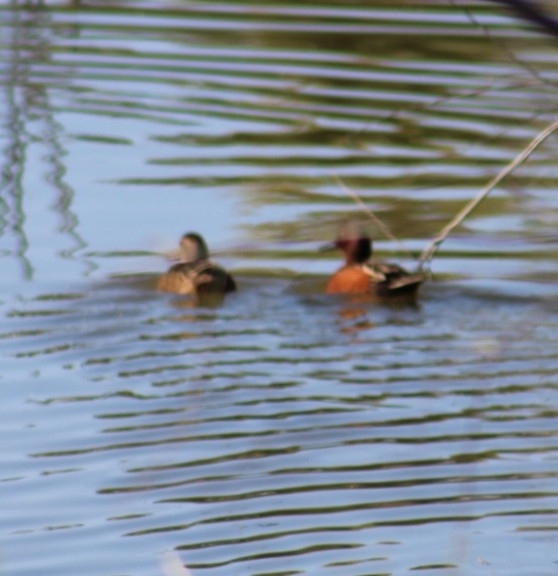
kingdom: Animalia
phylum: Chordata
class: Aves
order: Anseriformes
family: Anatidae
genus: Spatula
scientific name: Spatula cyanoptera
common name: Cinnamon teal
